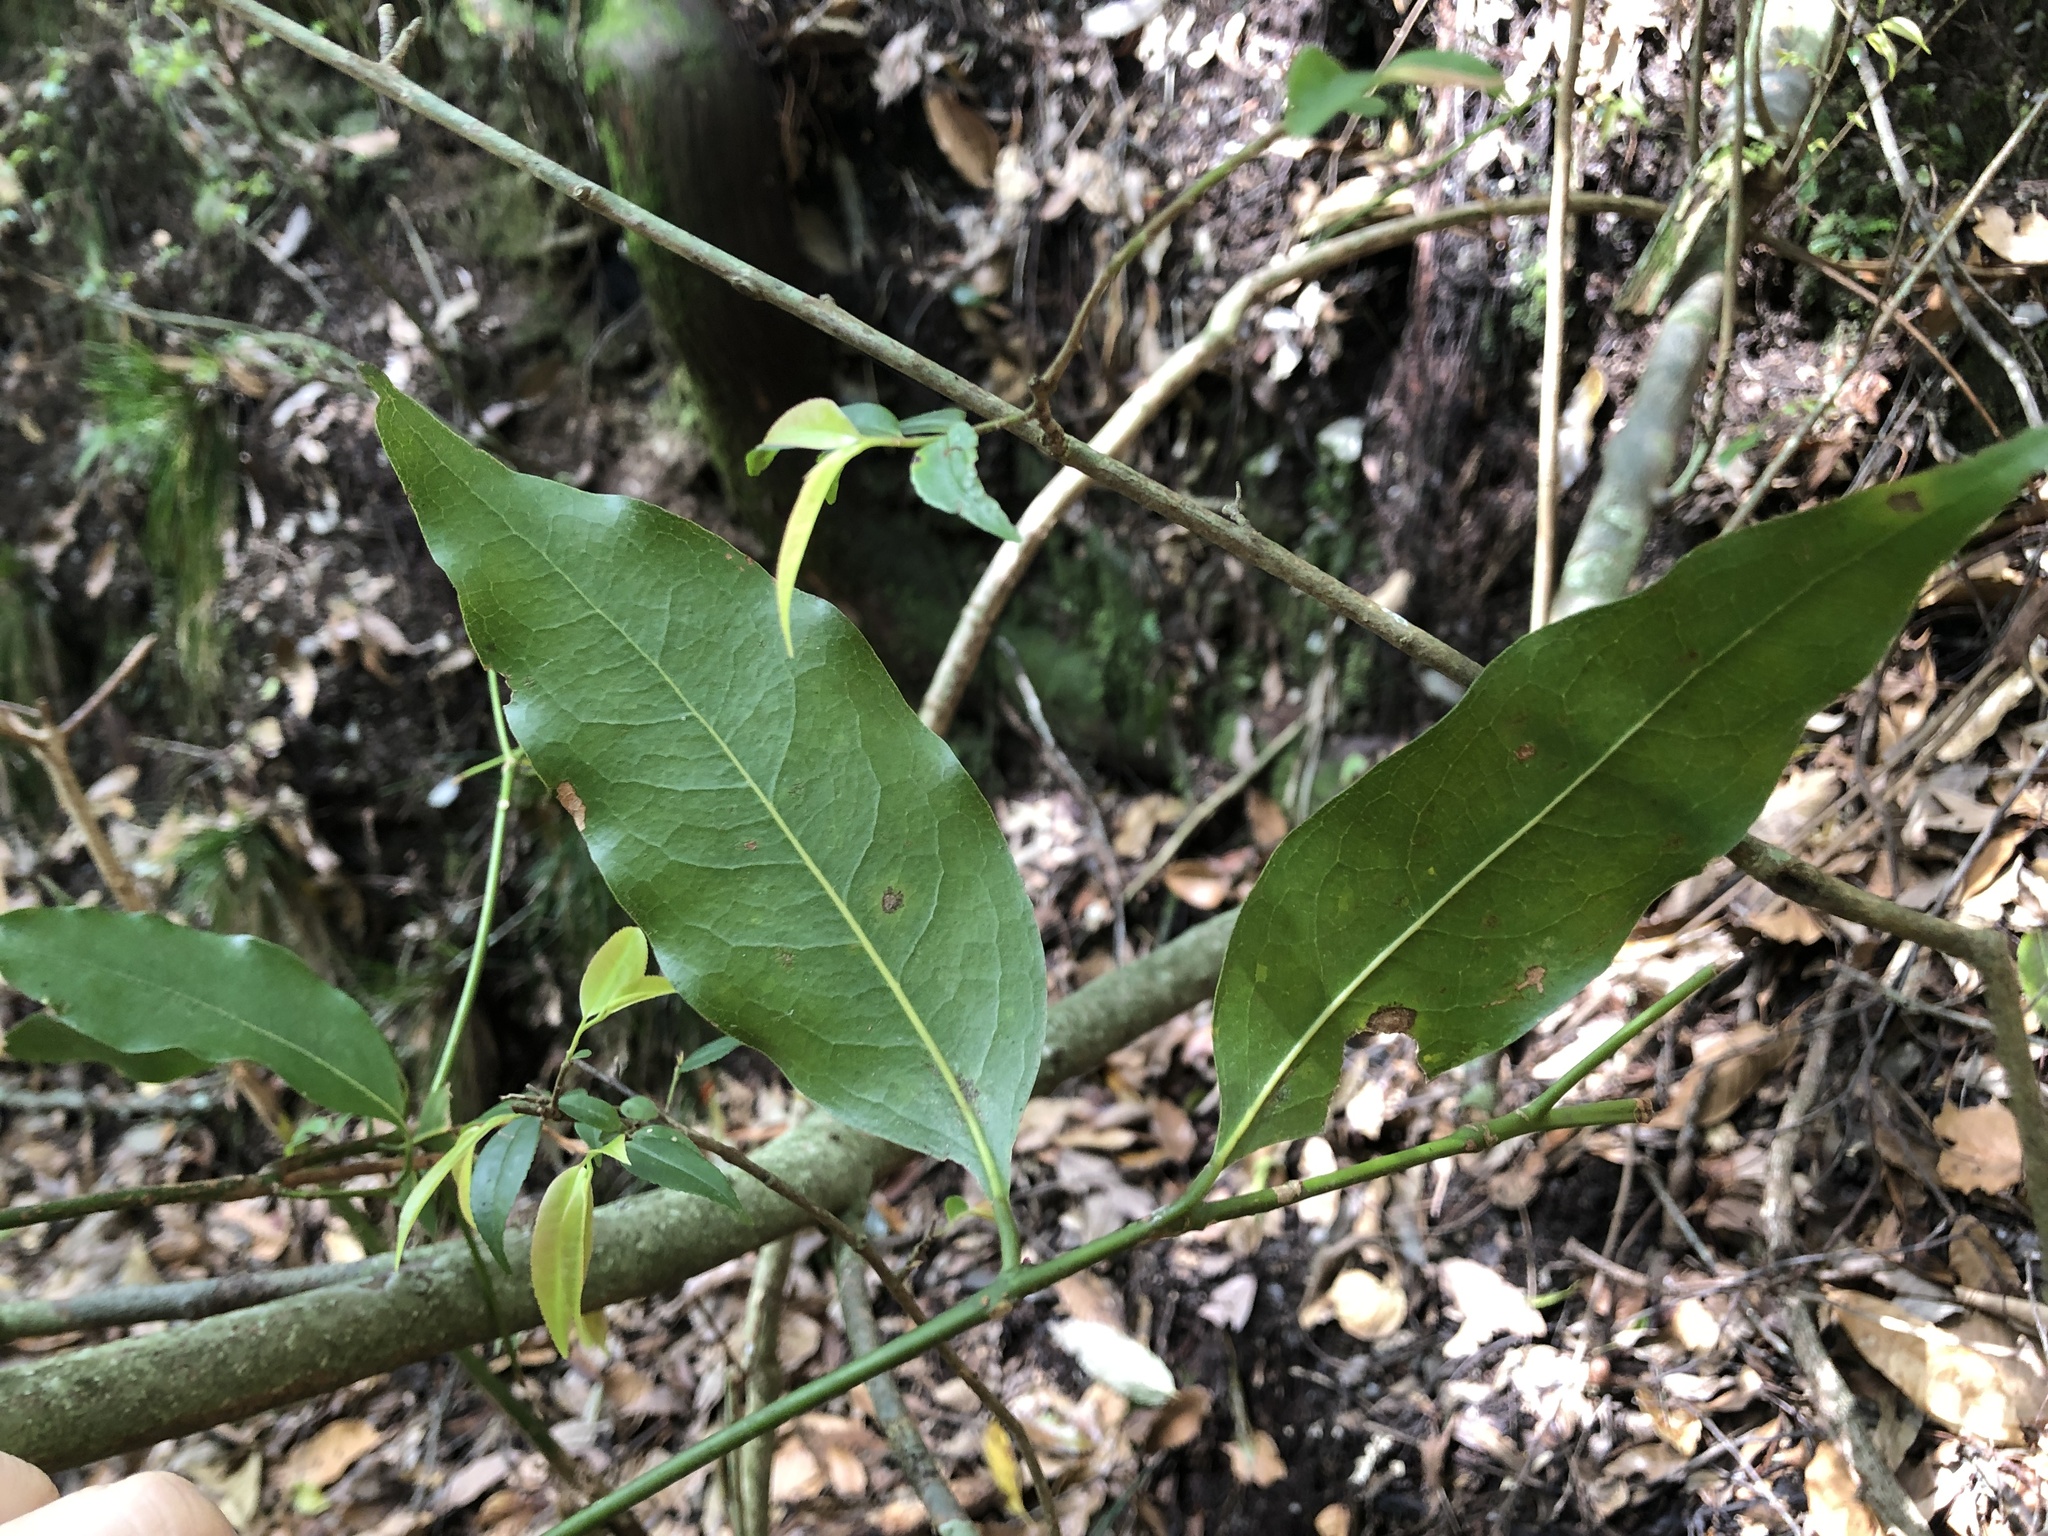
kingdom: Plantae
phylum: Tracheophyta
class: Magnoliopsida
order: Laurales
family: Lauraceae
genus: Beilschmiedia
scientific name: Beilschmiedia erythrophloia
